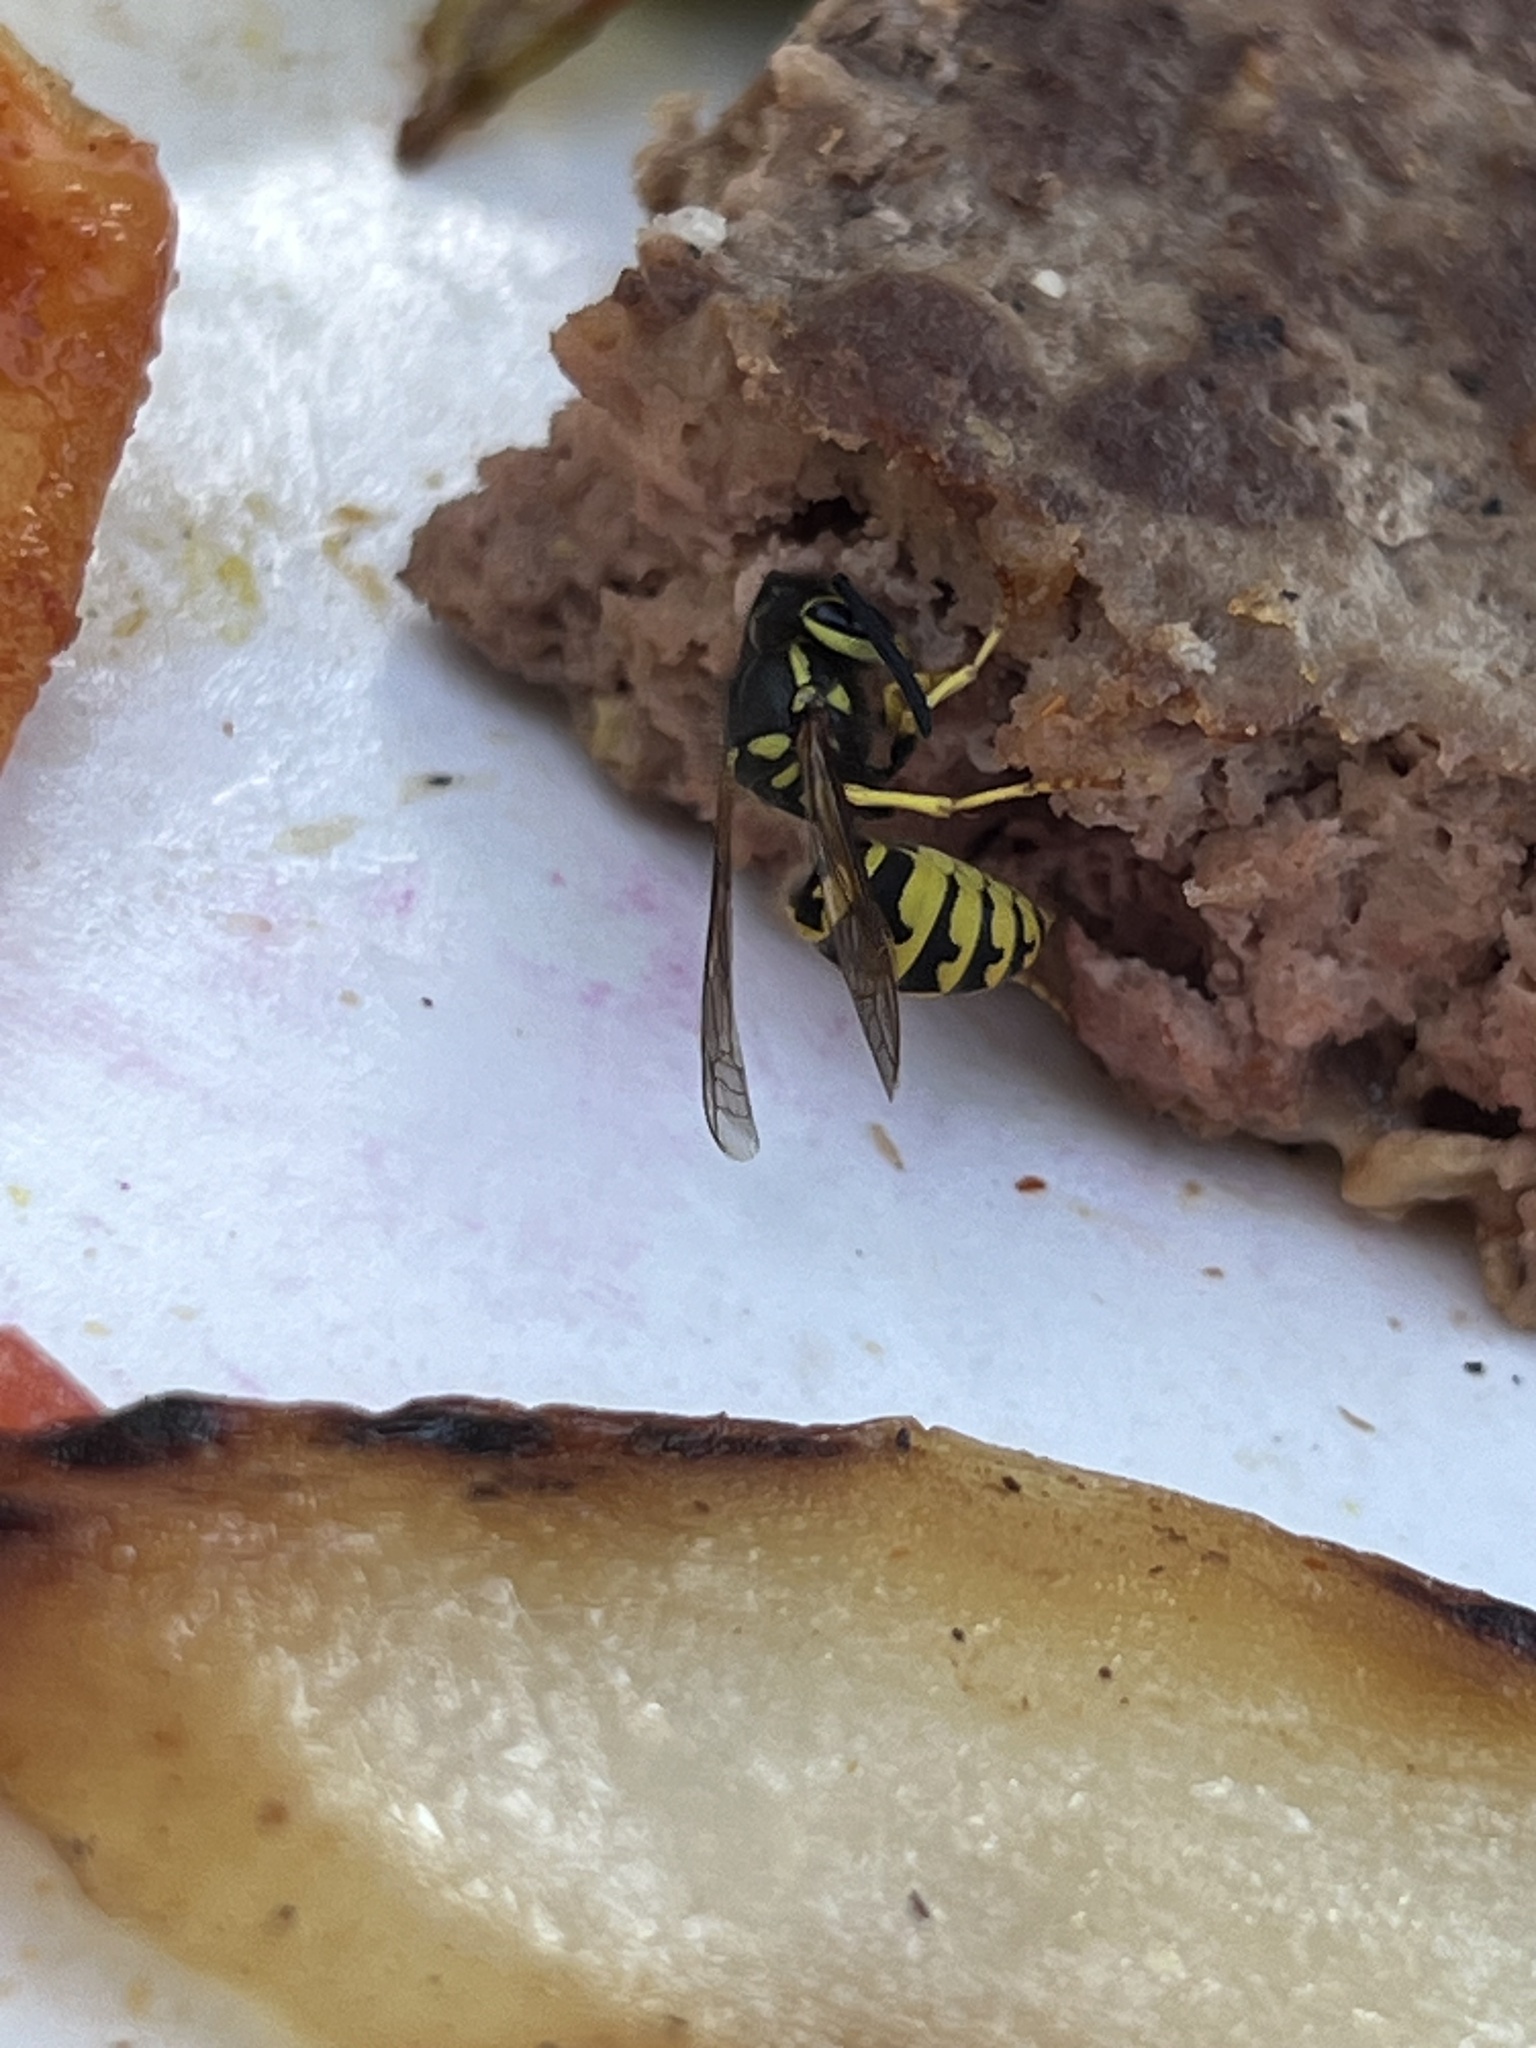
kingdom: Animalia
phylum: Arthropoda
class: Insecta
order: Hymenoptera
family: Vespidae
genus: Vespula
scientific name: Vespula pensylvanica
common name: Western yellowjacket
